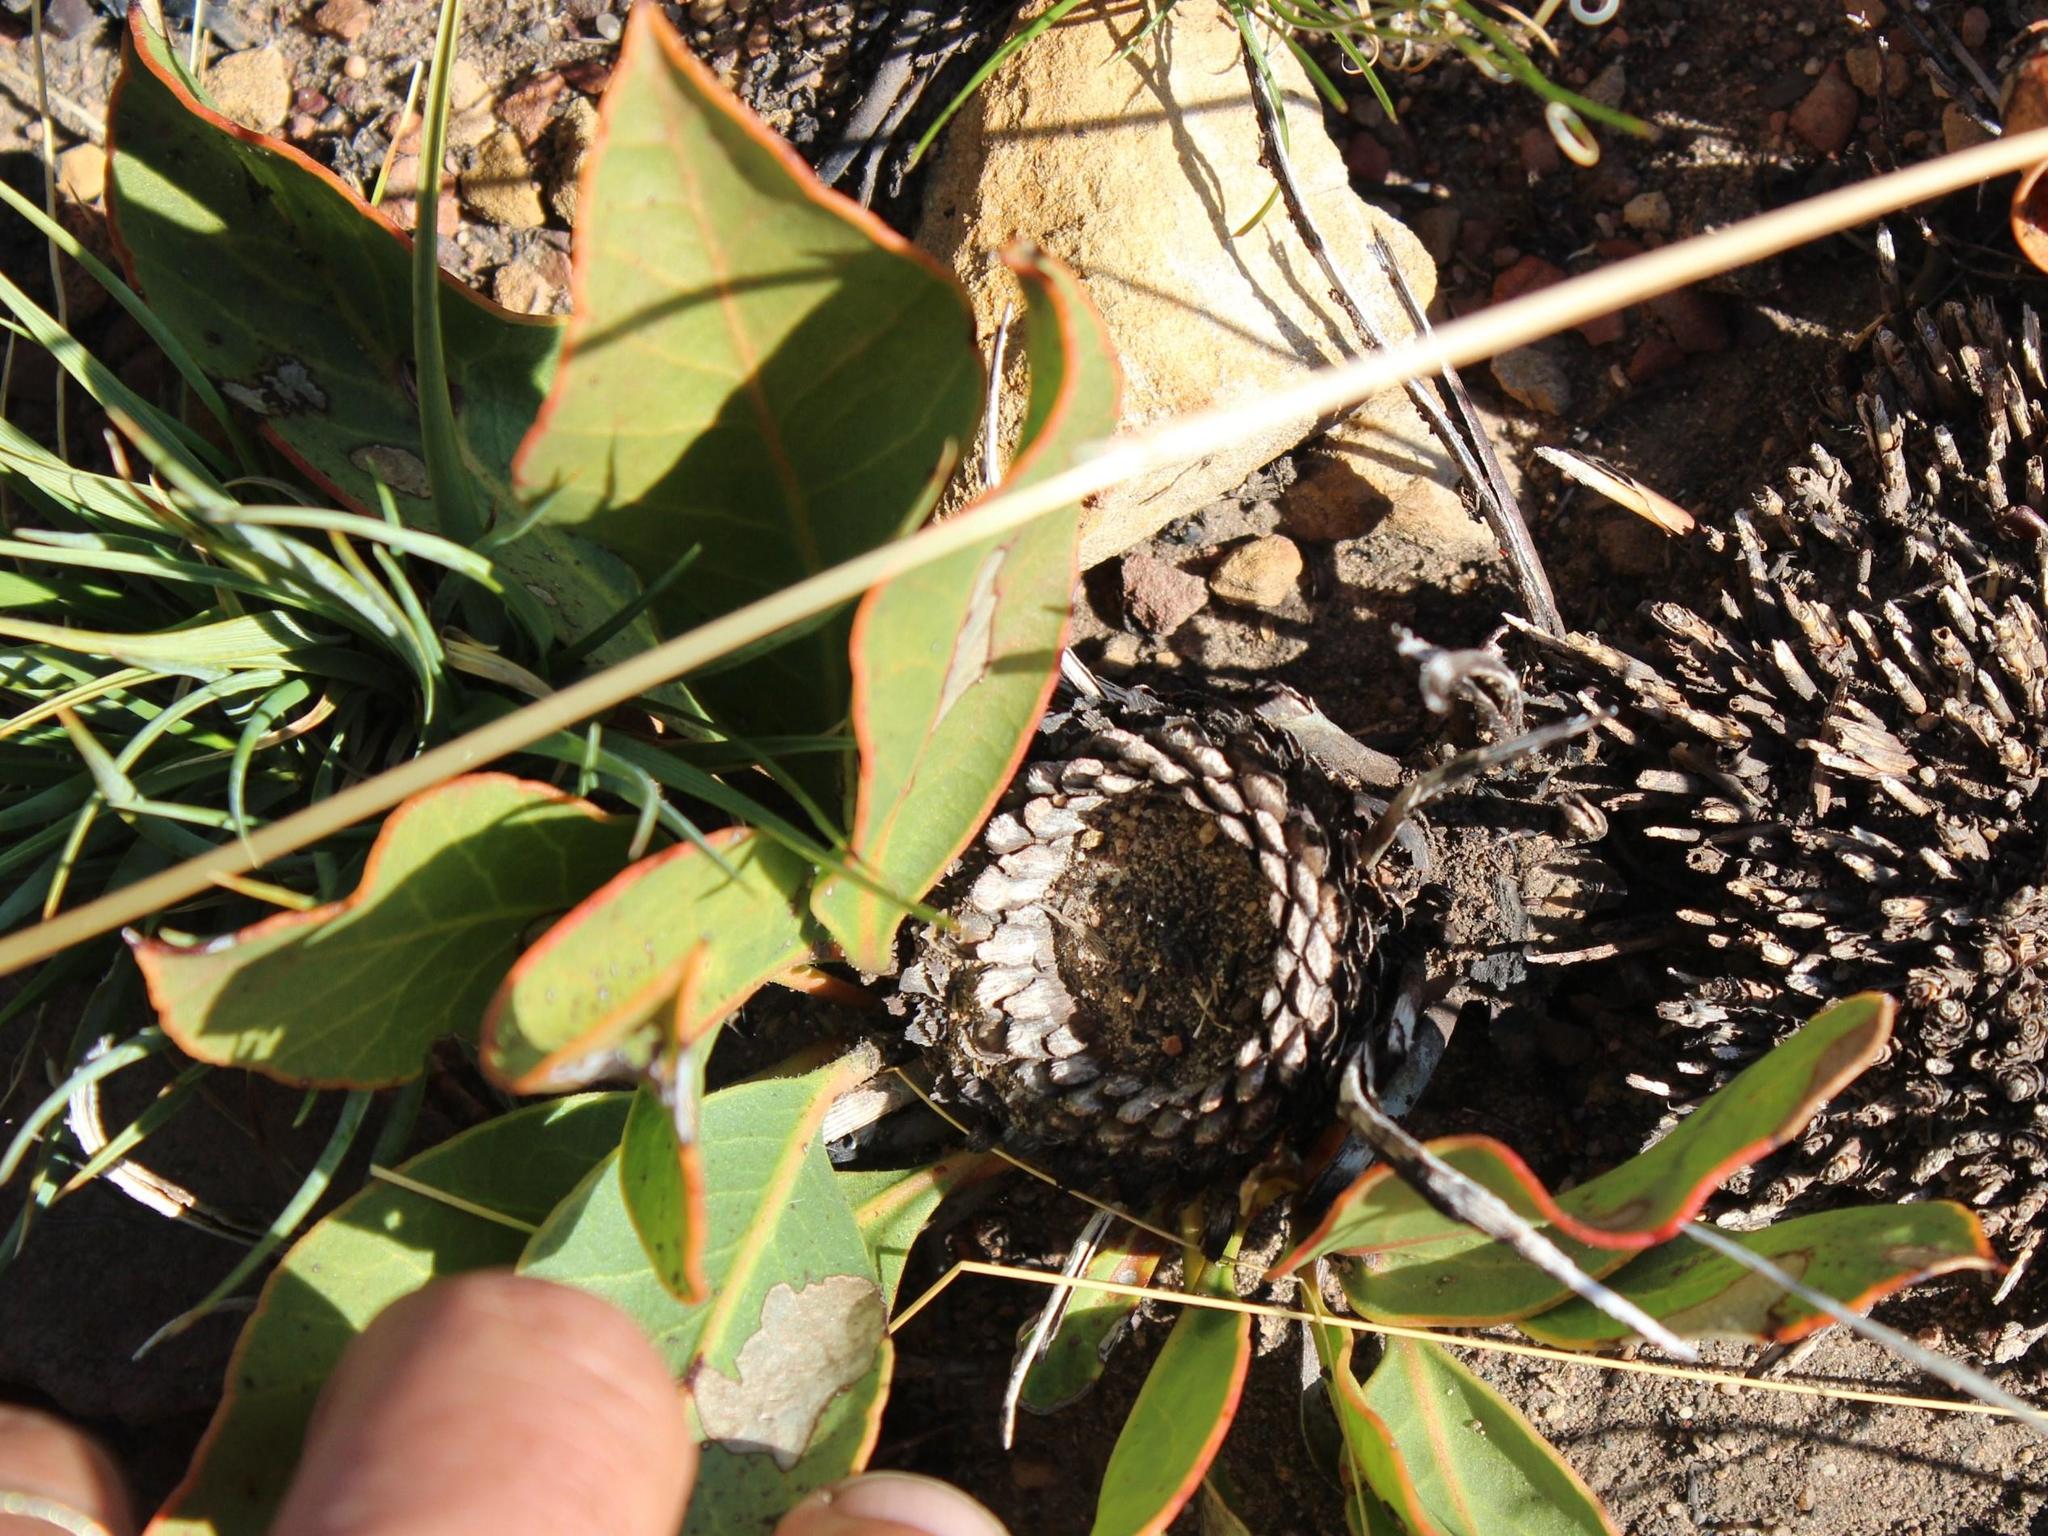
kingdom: Plantae
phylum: Tracheophyta
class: Magnoliopsida
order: Proteales
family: Proteaceae
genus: Protea
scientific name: Protea scolopendriifolia
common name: Harts-tongue-fern sugarbush
